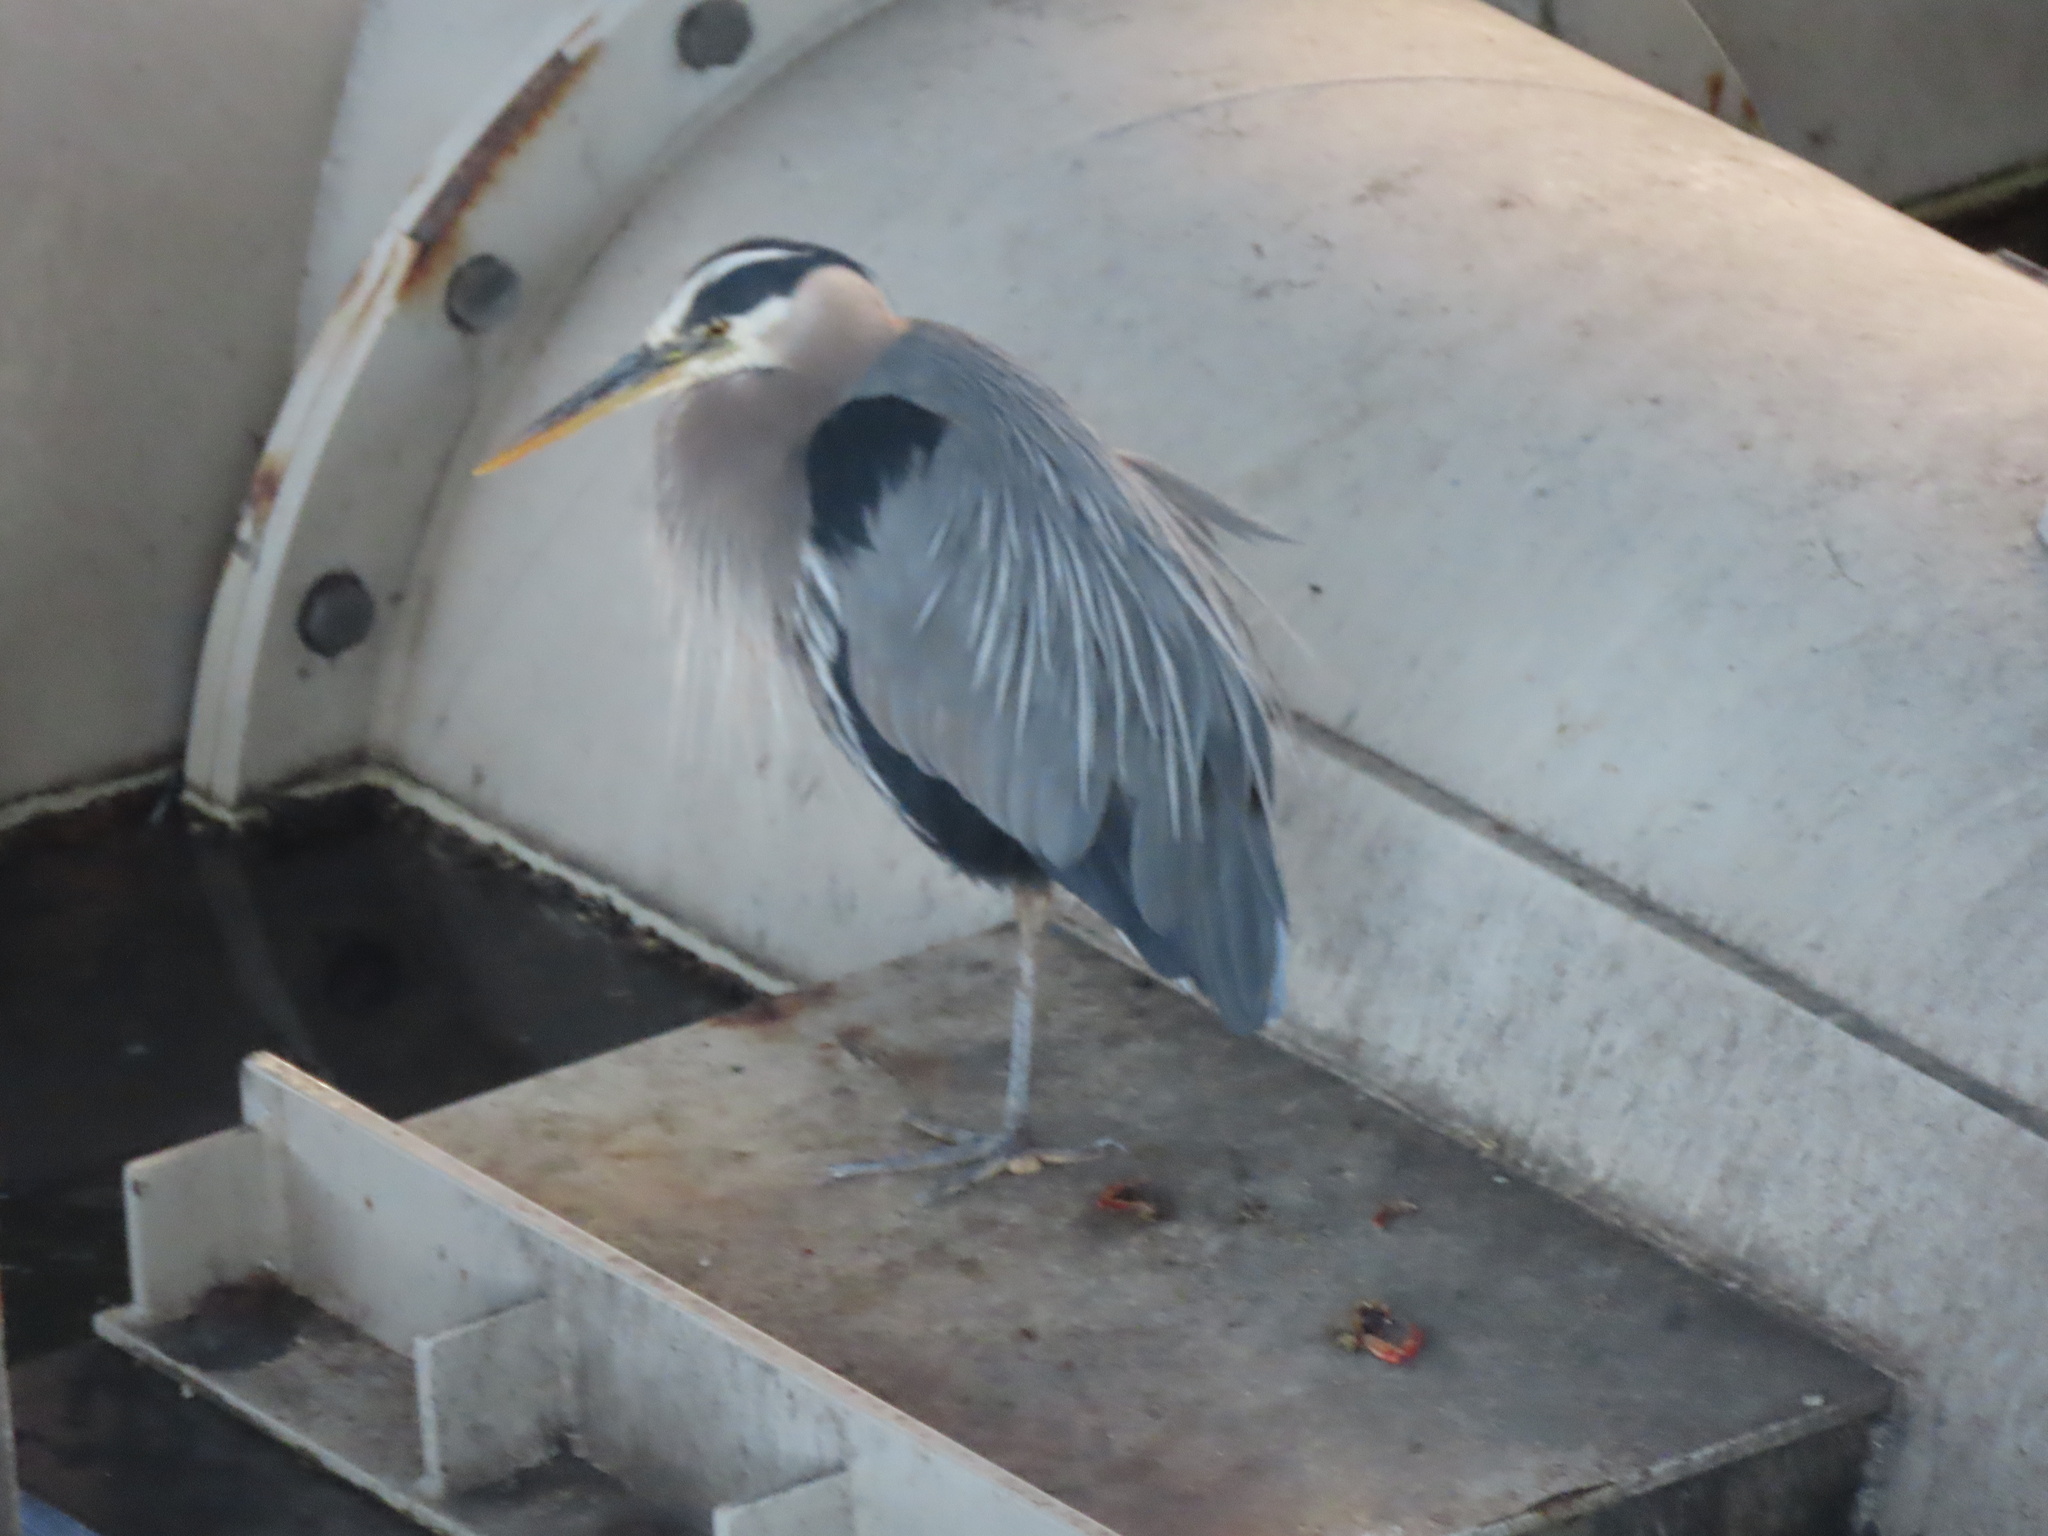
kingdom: Animalia
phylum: Chordata
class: Aves
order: Pelecaniformes
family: Ardeidae
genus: Ardea
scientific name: Ardea herodias
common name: Great blue heron
